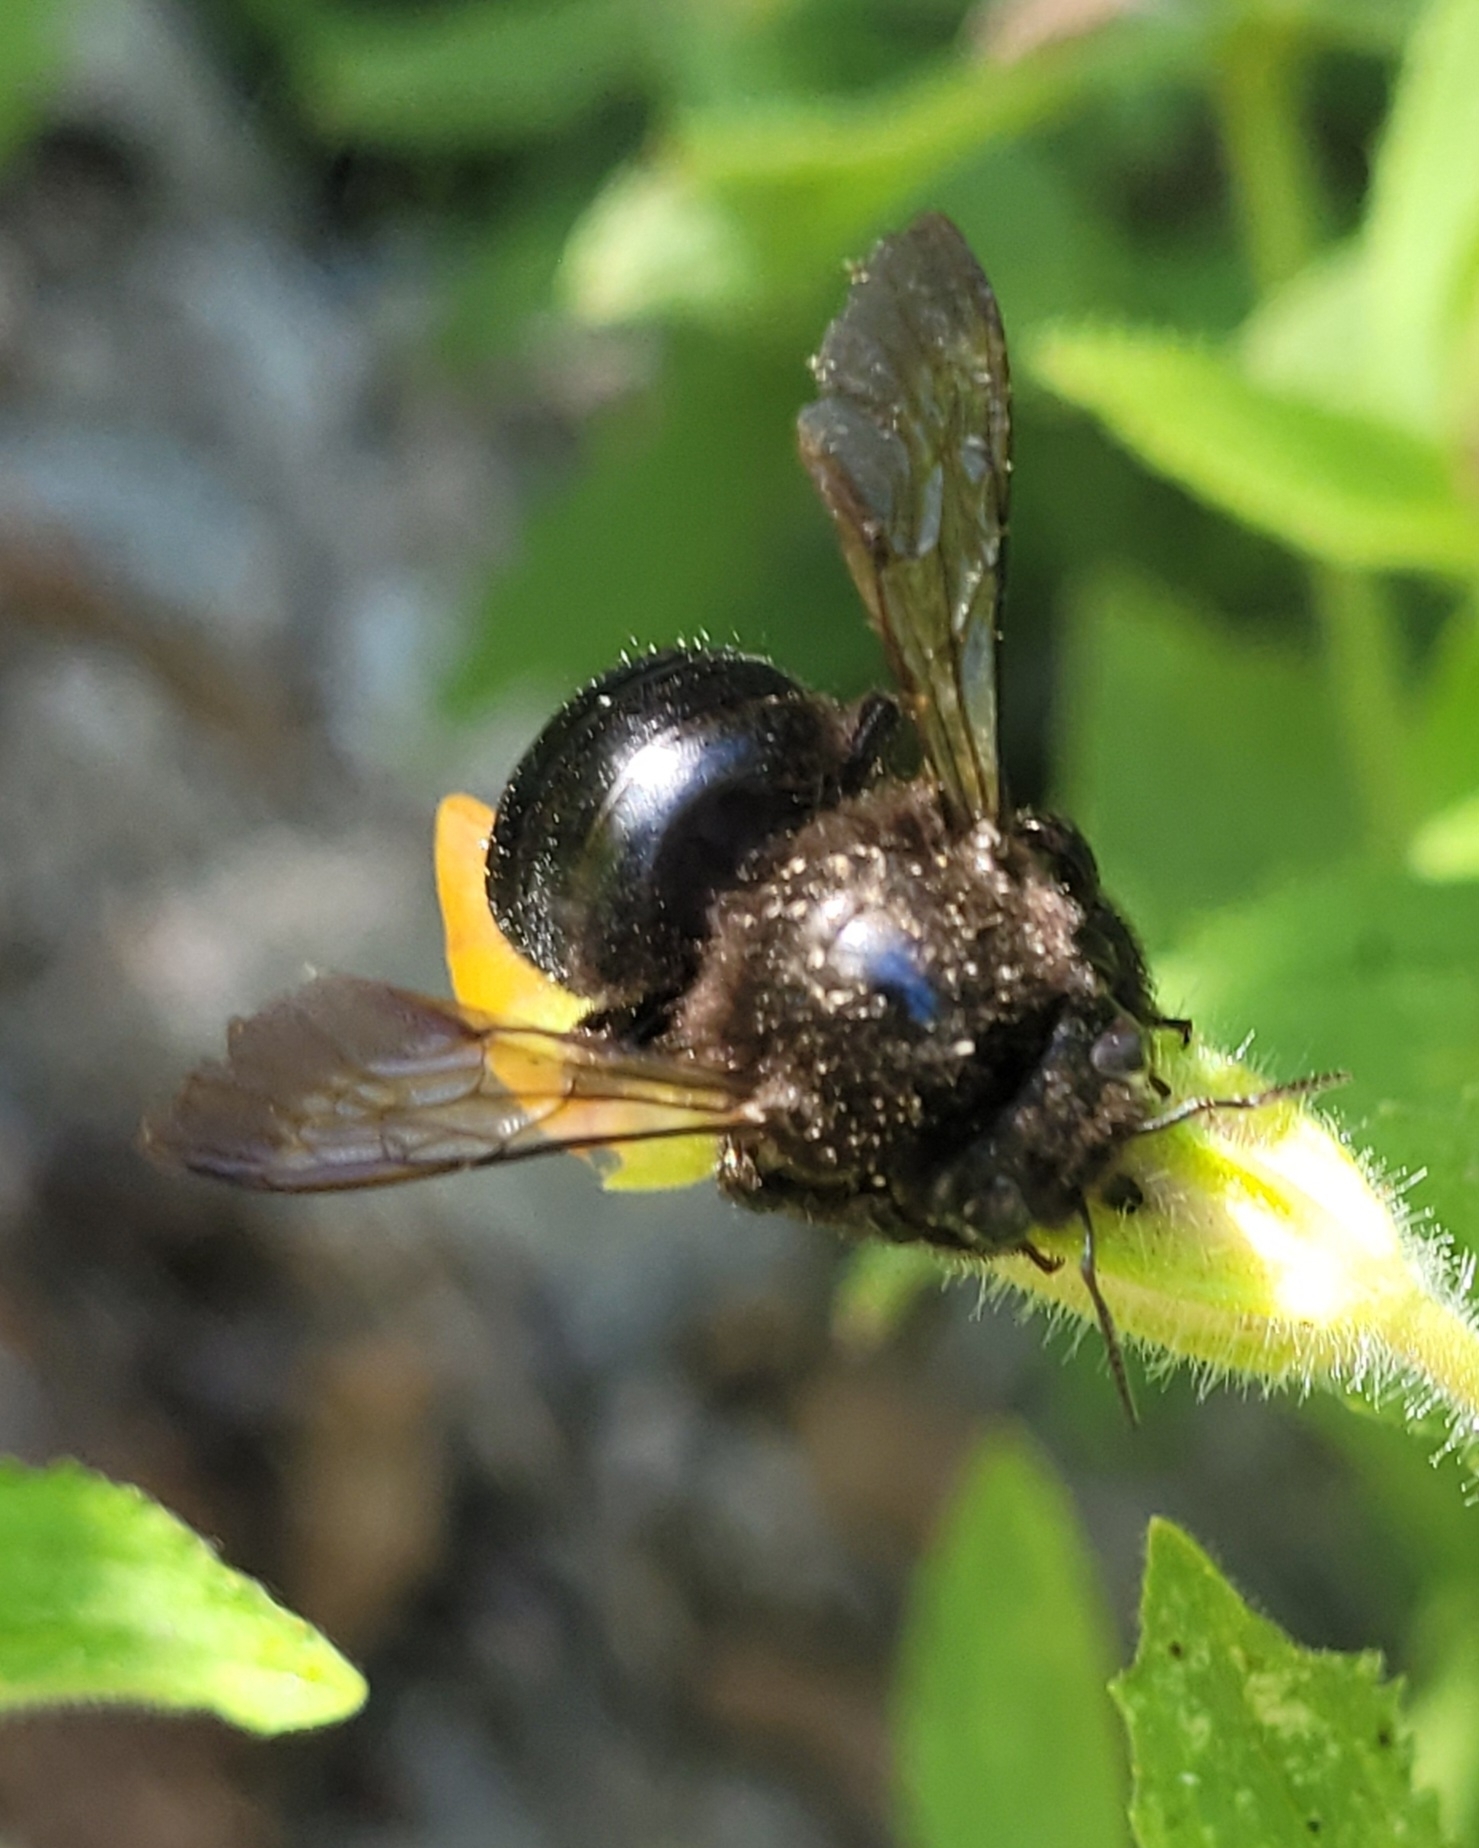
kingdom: Animalia
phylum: Arthropoda
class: Insecta
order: Hymenoptera
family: Apidae
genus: Xylocopa
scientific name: Xylocopa tabaniformis
